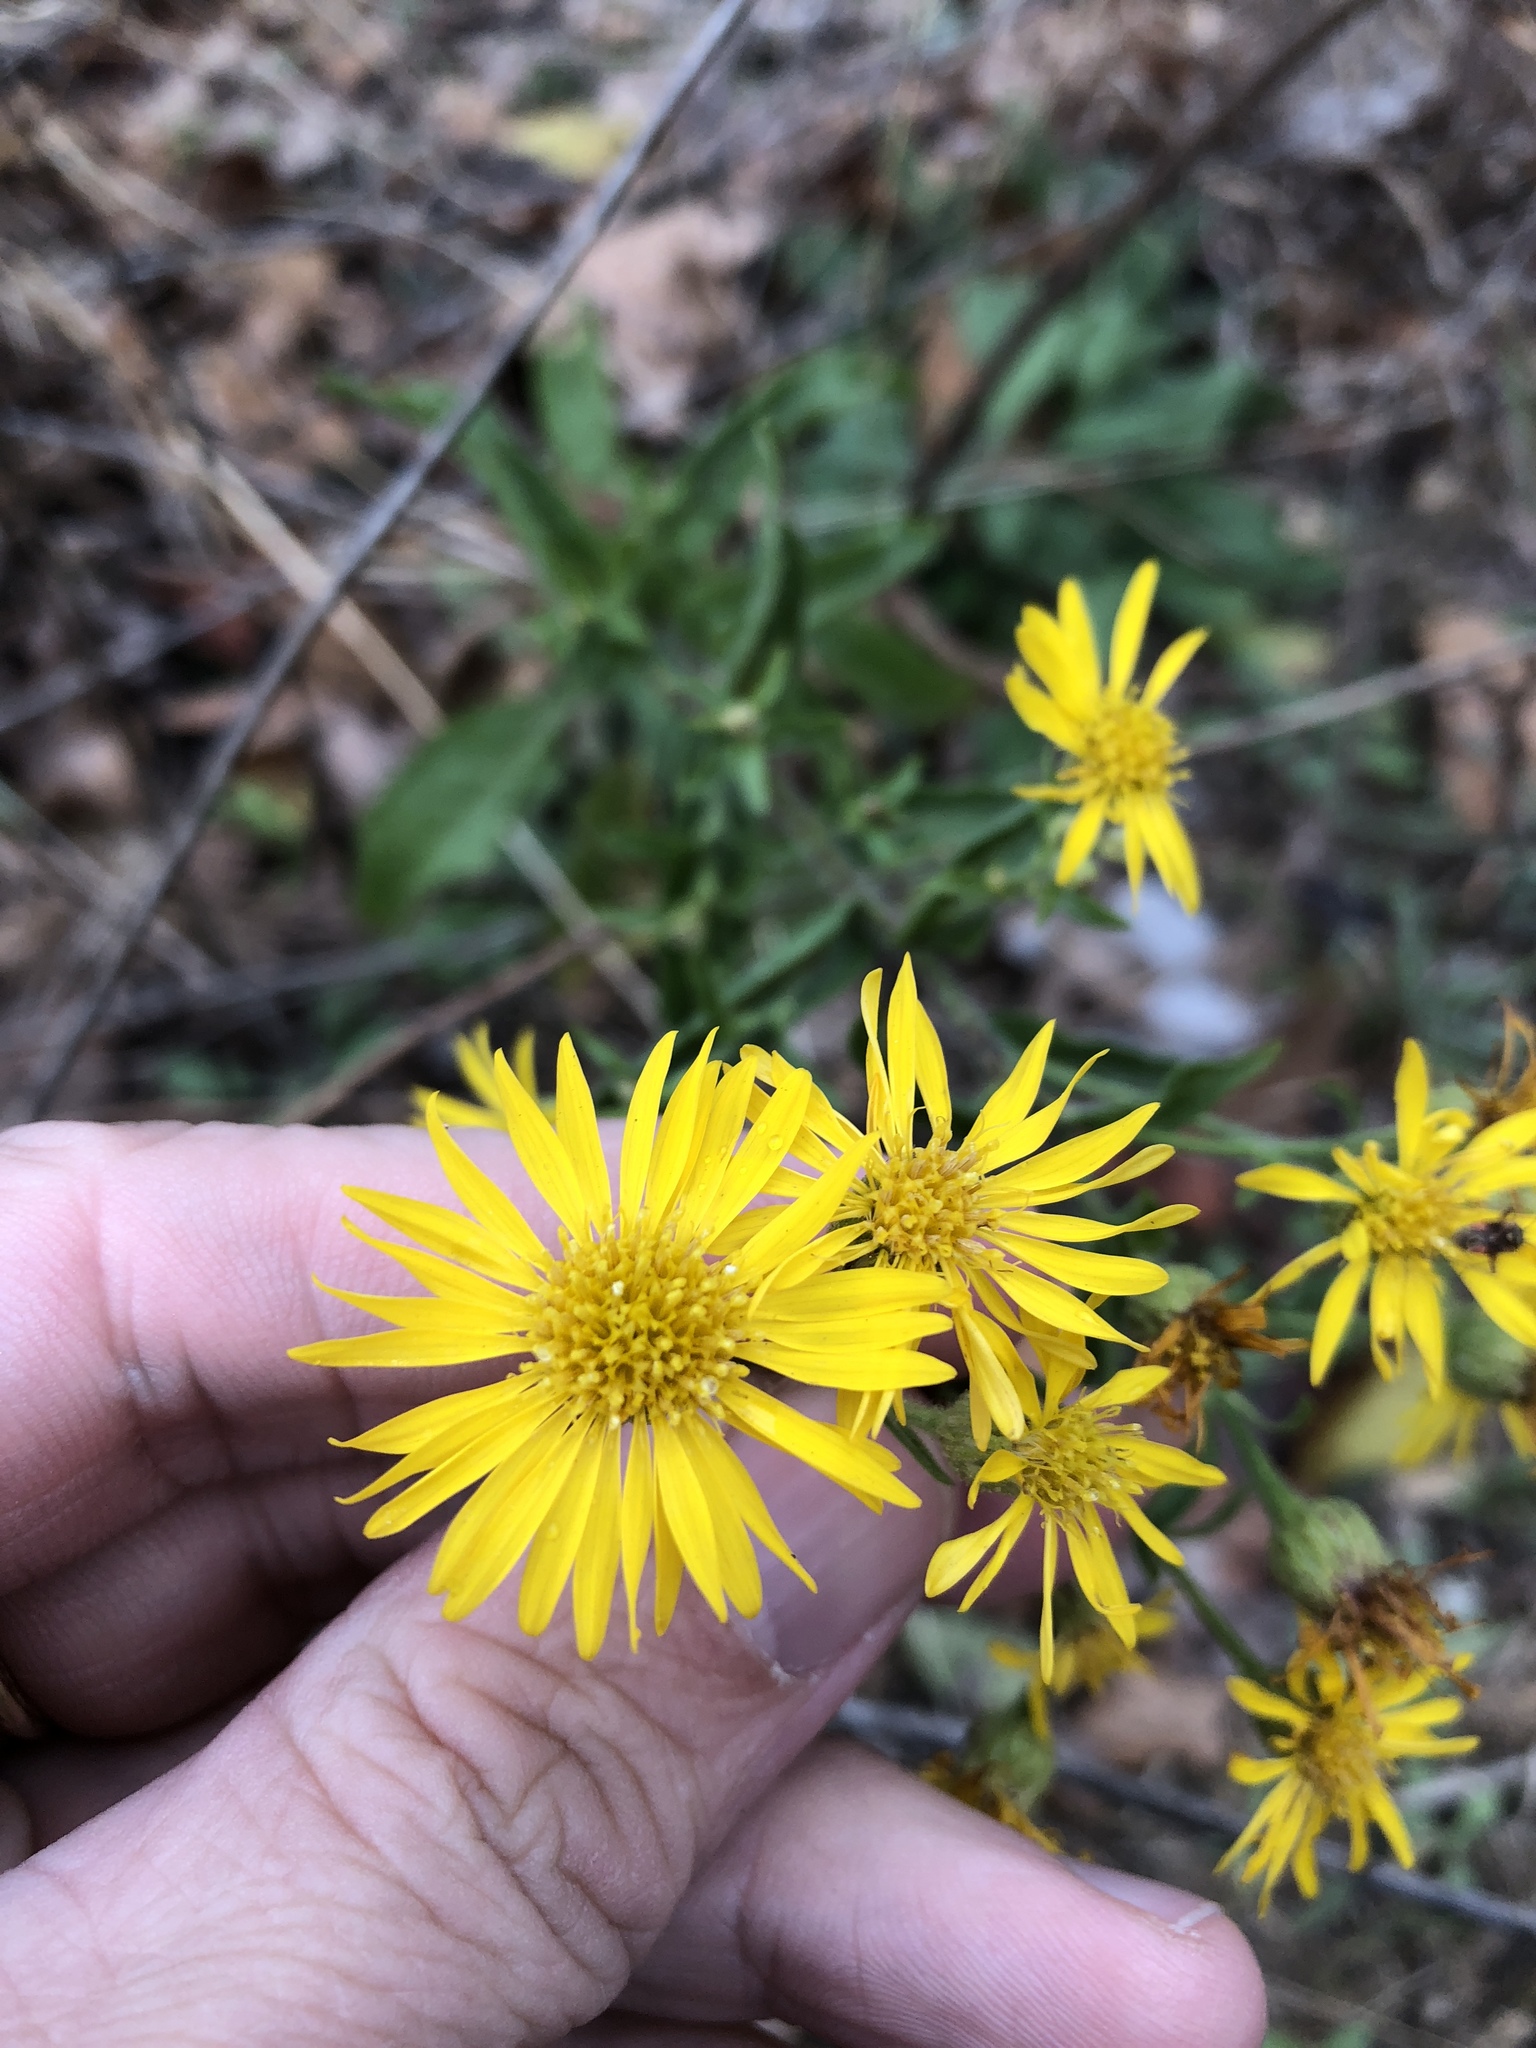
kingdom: Plantae
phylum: Tracheophyta
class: Magnoliopsida
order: Asterales
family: Asteraceae
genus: Heterotheca
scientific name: Heterotheca subaxillaris
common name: Camphorweed
